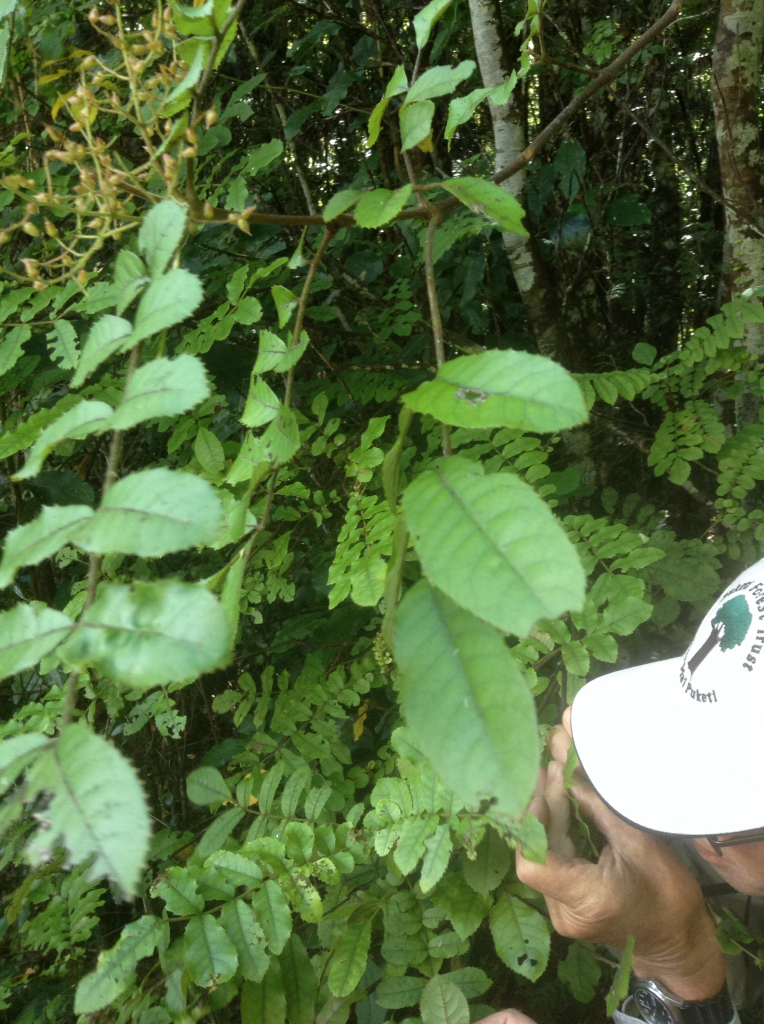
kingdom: Plantae
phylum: Tracheophyta
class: Magnoliopsida
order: Oxalidales
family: Cunoniaceae
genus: Ackama
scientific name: Ackama rosifolia
